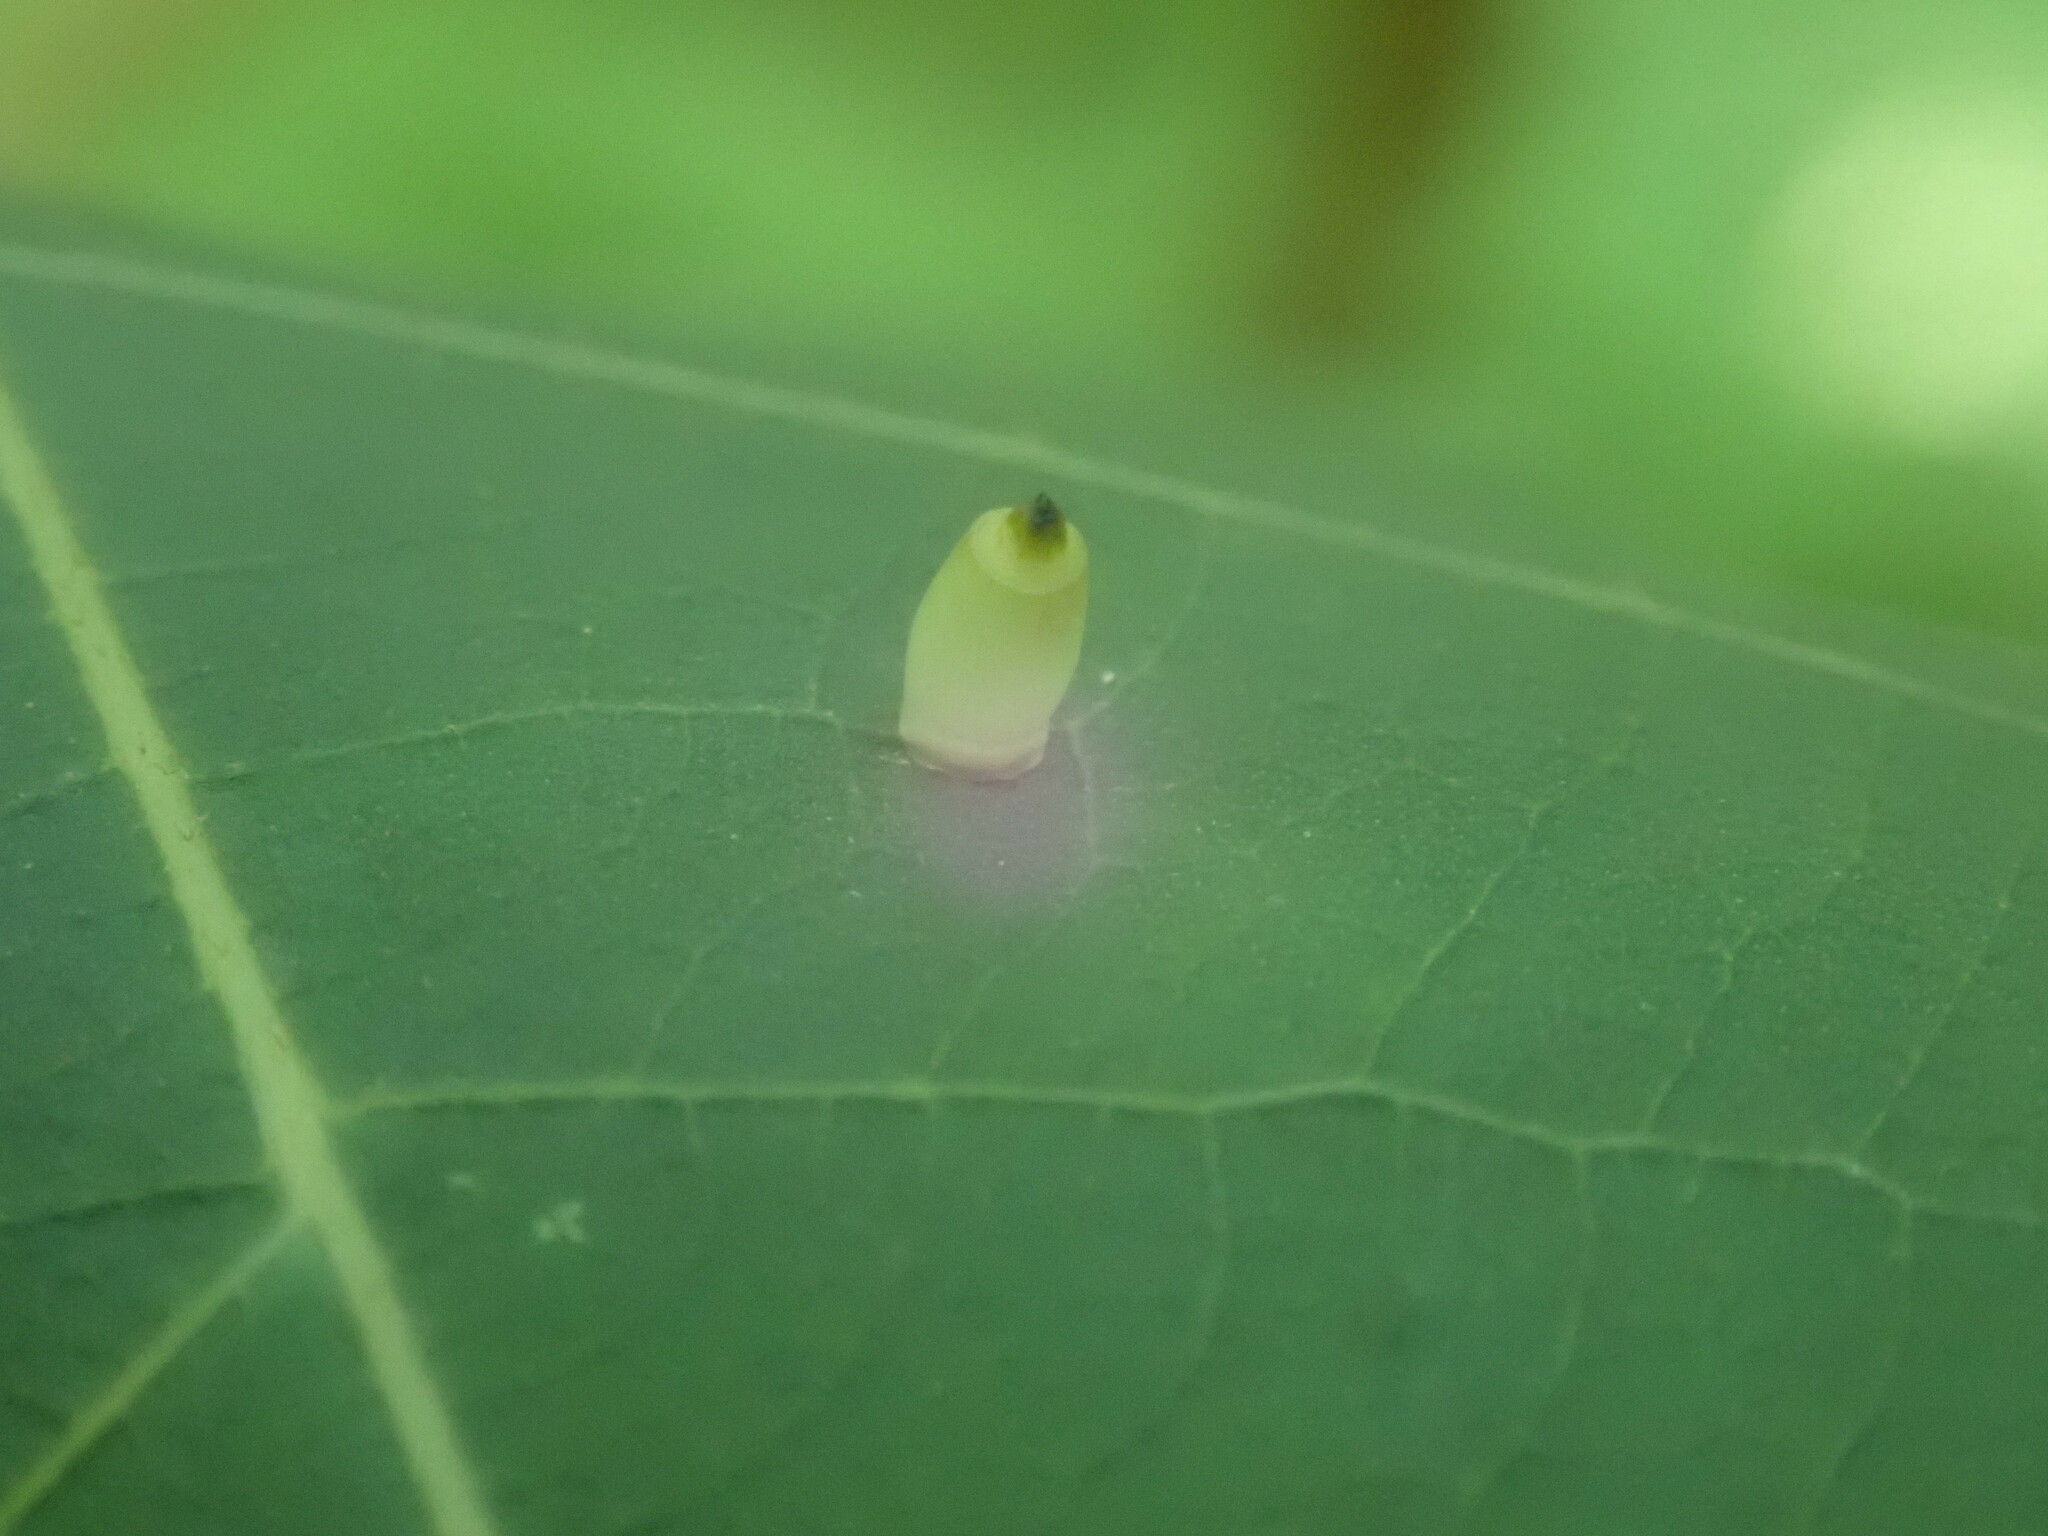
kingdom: Animalia
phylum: Arthropoda
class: Insecta
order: Diptera
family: Cecidomyiidae
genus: Caryomyia
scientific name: Caryomyia urnula
